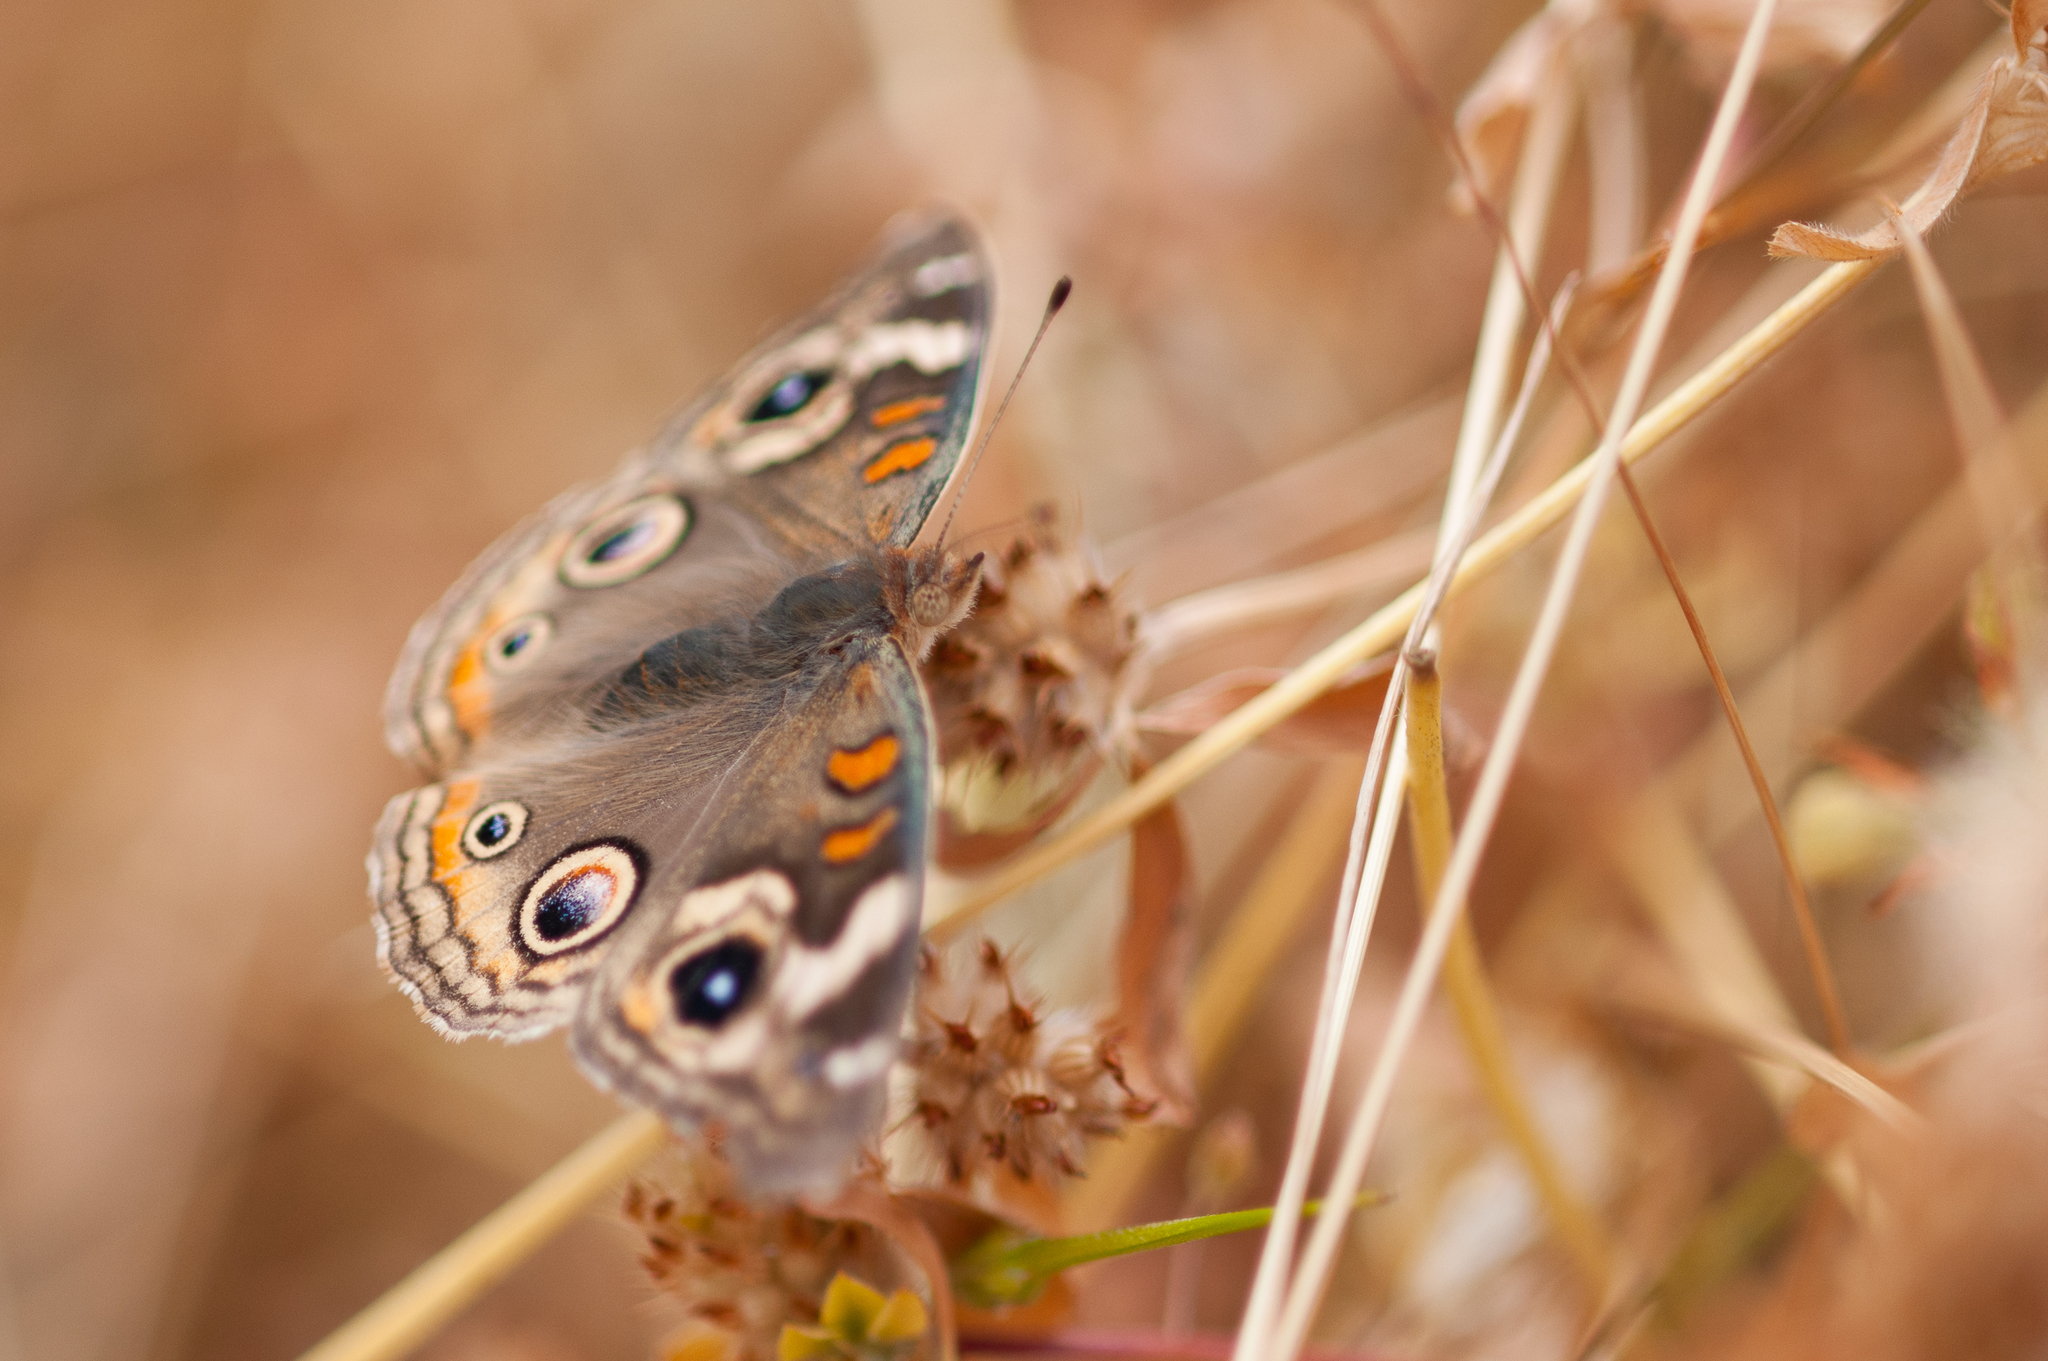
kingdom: Animalia
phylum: Arthropoda
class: Insecta
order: Lepidoptera
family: Nymphalidae
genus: Junonia
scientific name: Junonia grisea
